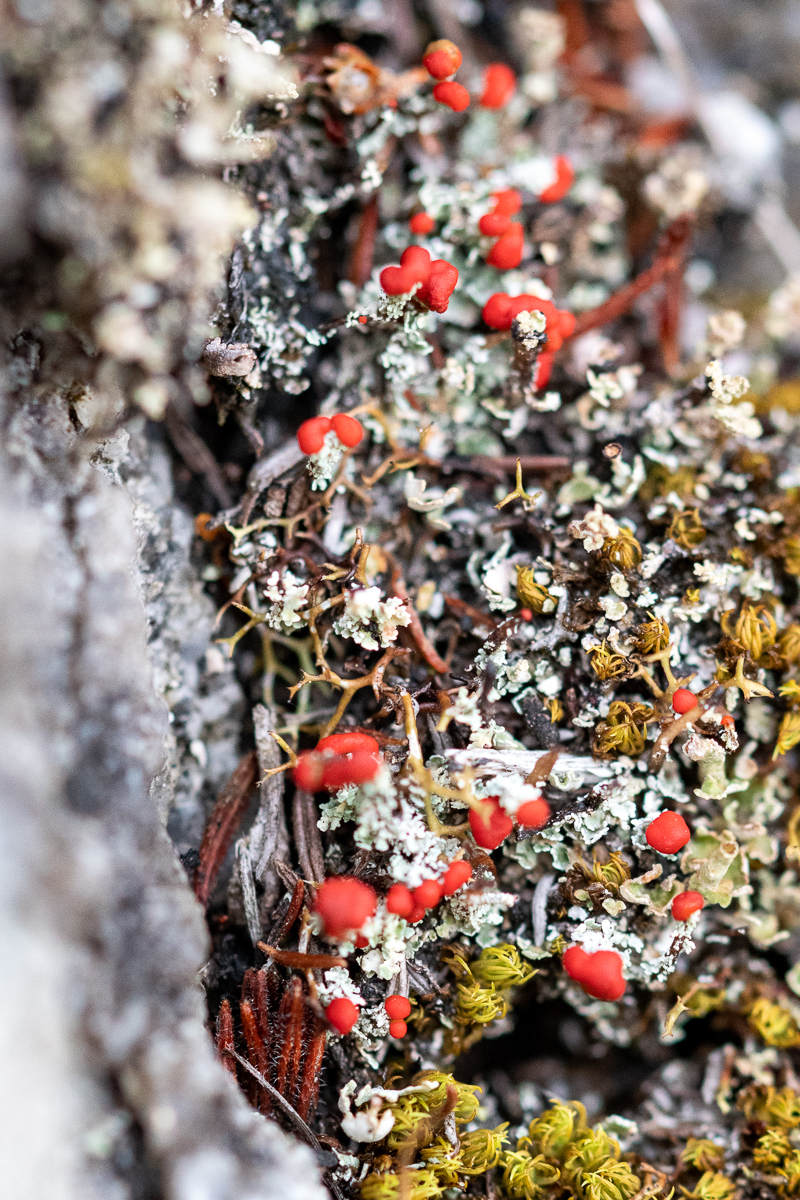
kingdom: Fungi
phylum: Ascomycota
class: Lecanoromycetes
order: Lecanorales
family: Cladoniaceae
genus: Cladonia
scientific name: Cladonia didyma
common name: Southern soldiers
